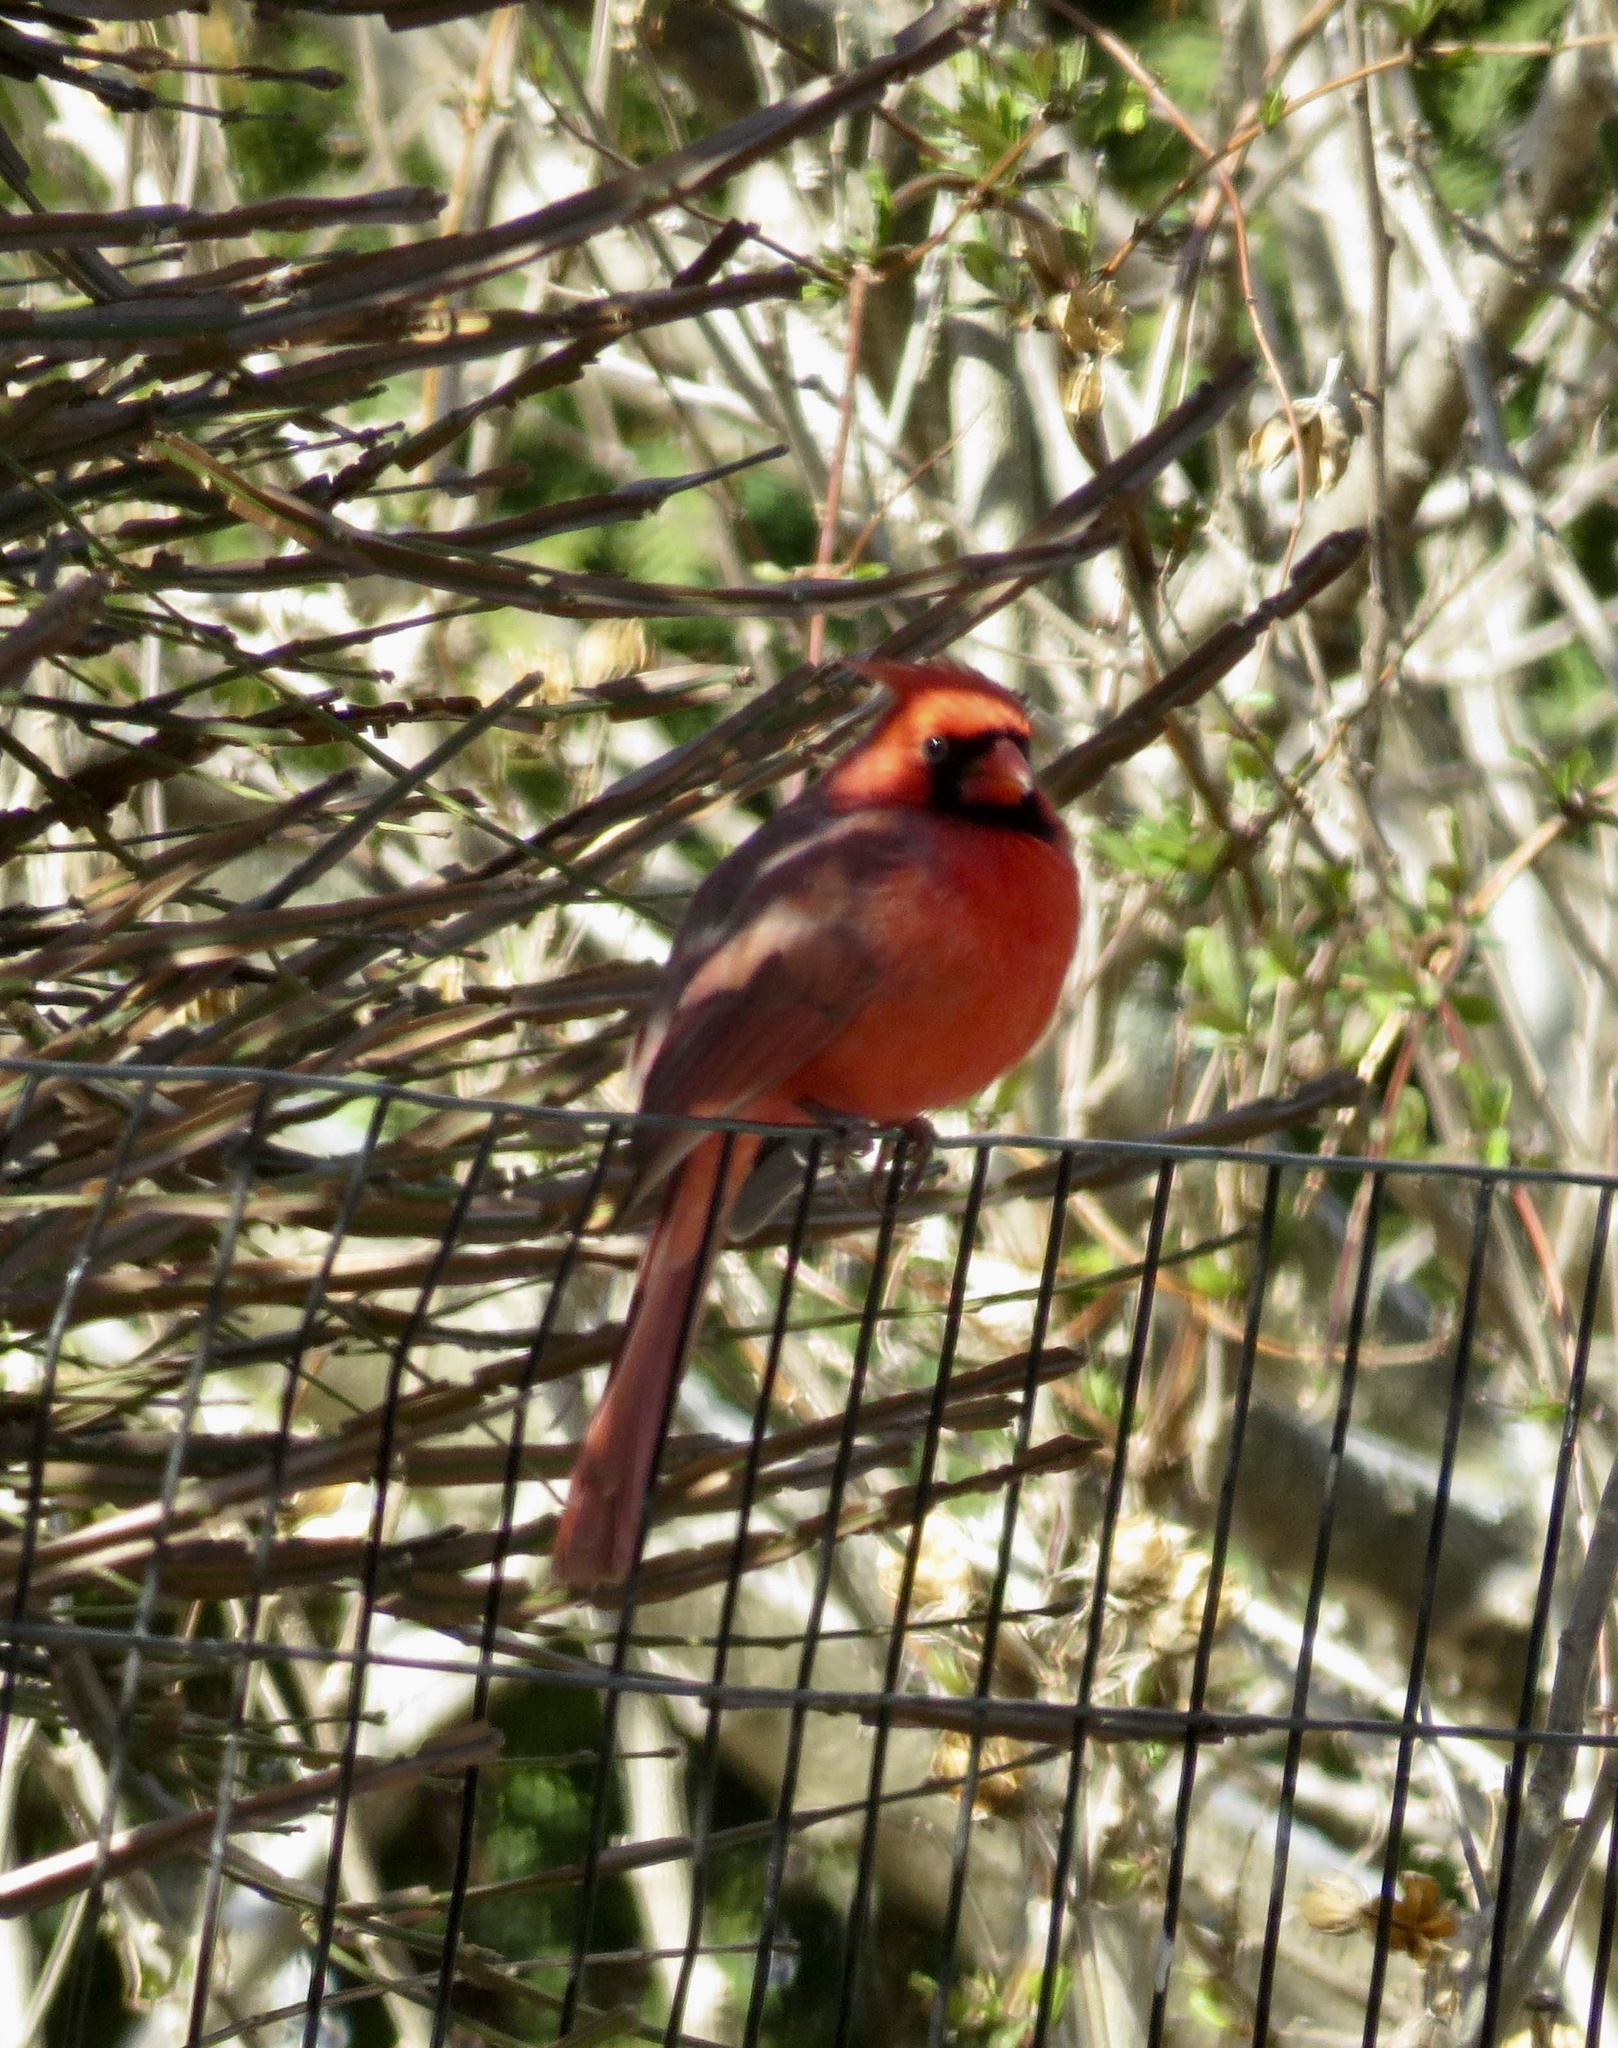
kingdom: Animalia
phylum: Chordata
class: Aves
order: Passeriformes
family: Cardinalidae
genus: Cardinalis
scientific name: Cardinalis cardinalis
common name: Northern cardinal
